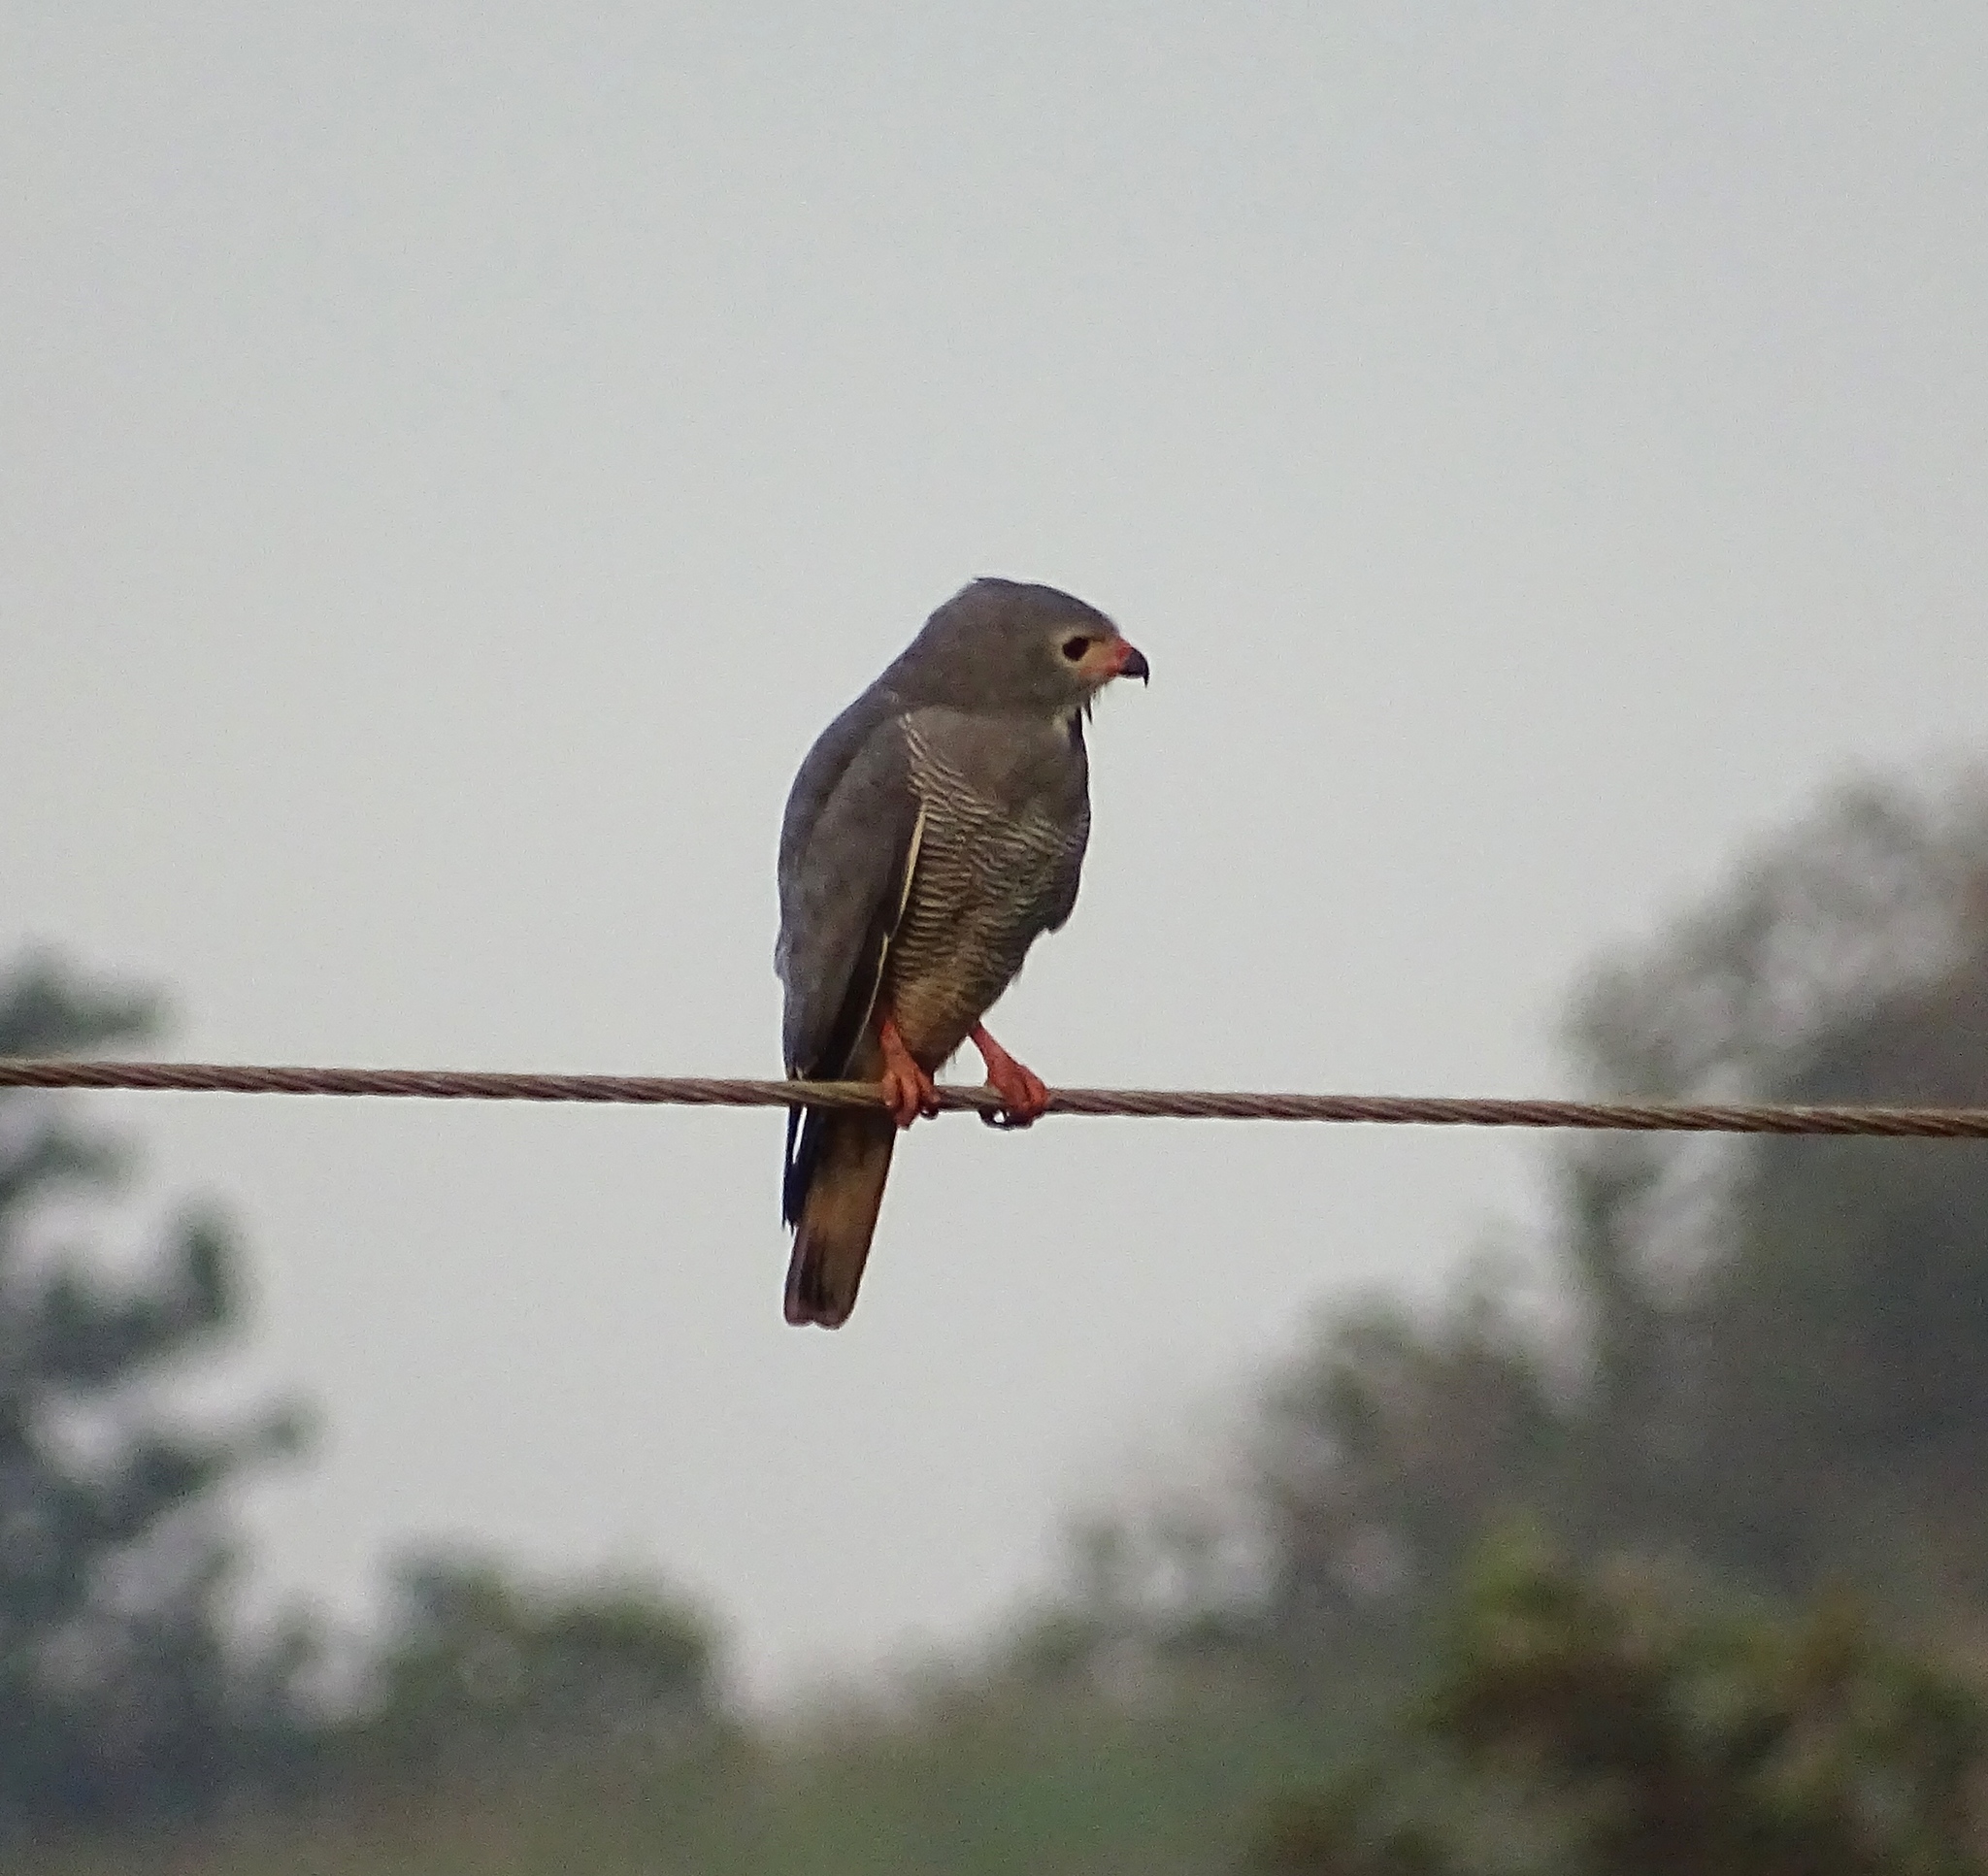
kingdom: Animalia
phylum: Chordata
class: Aves
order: Accipitriformes
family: Accipitridae
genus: Kaupifalco
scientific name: Kaupifalco monogrammicus
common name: Lizard buzzard
